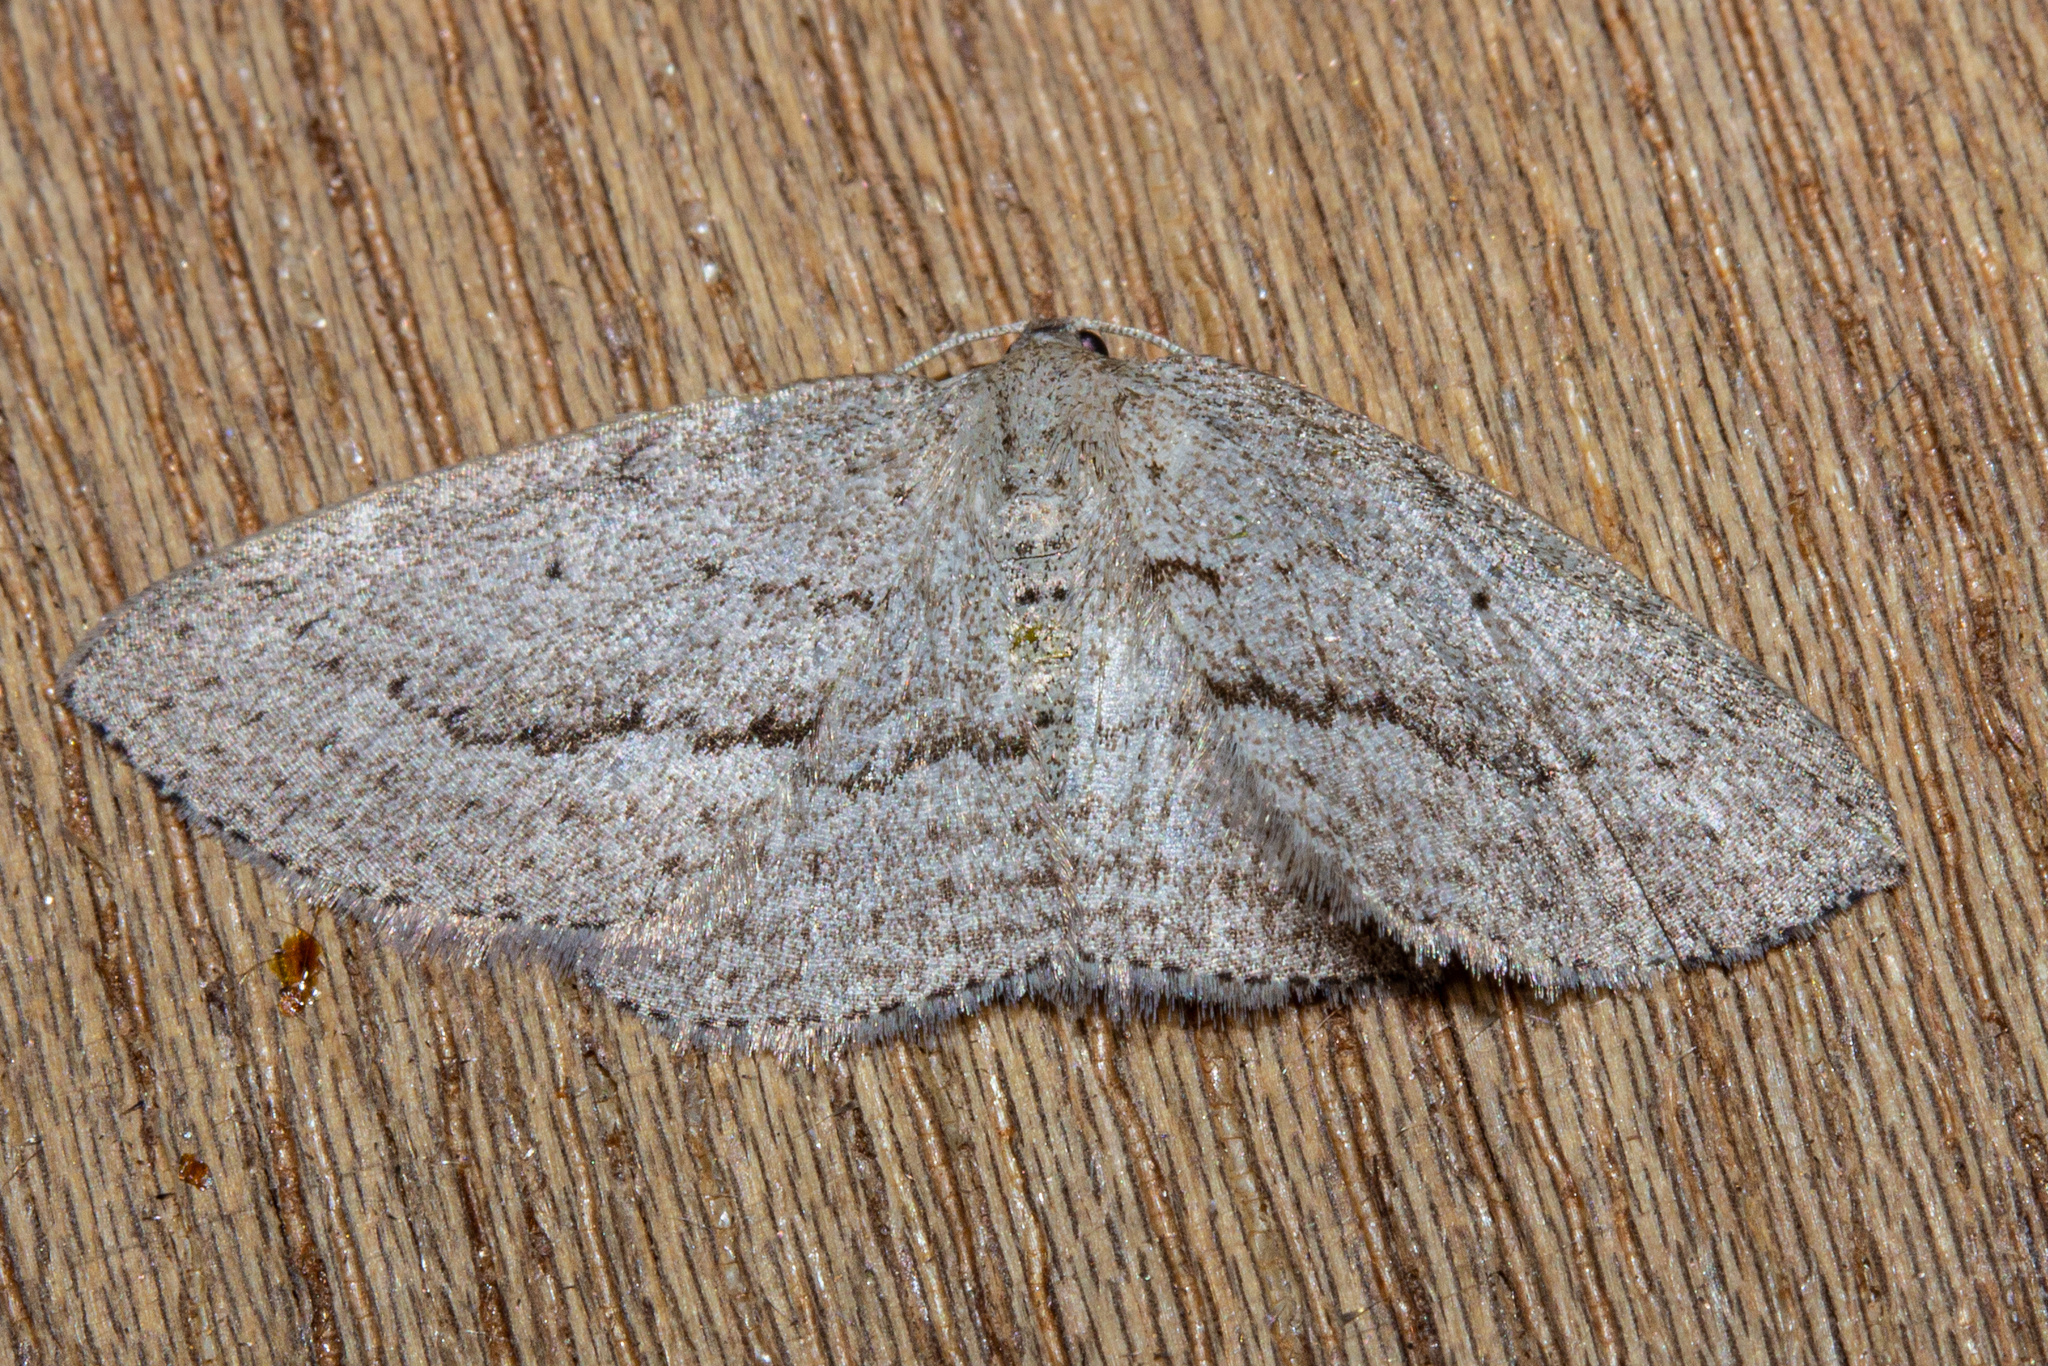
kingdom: Animalia
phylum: Arthropoda
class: Insecta
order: Lepidoptera
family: Geometridae
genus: Poecilasthena
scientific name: Poecilasthena schistaria
